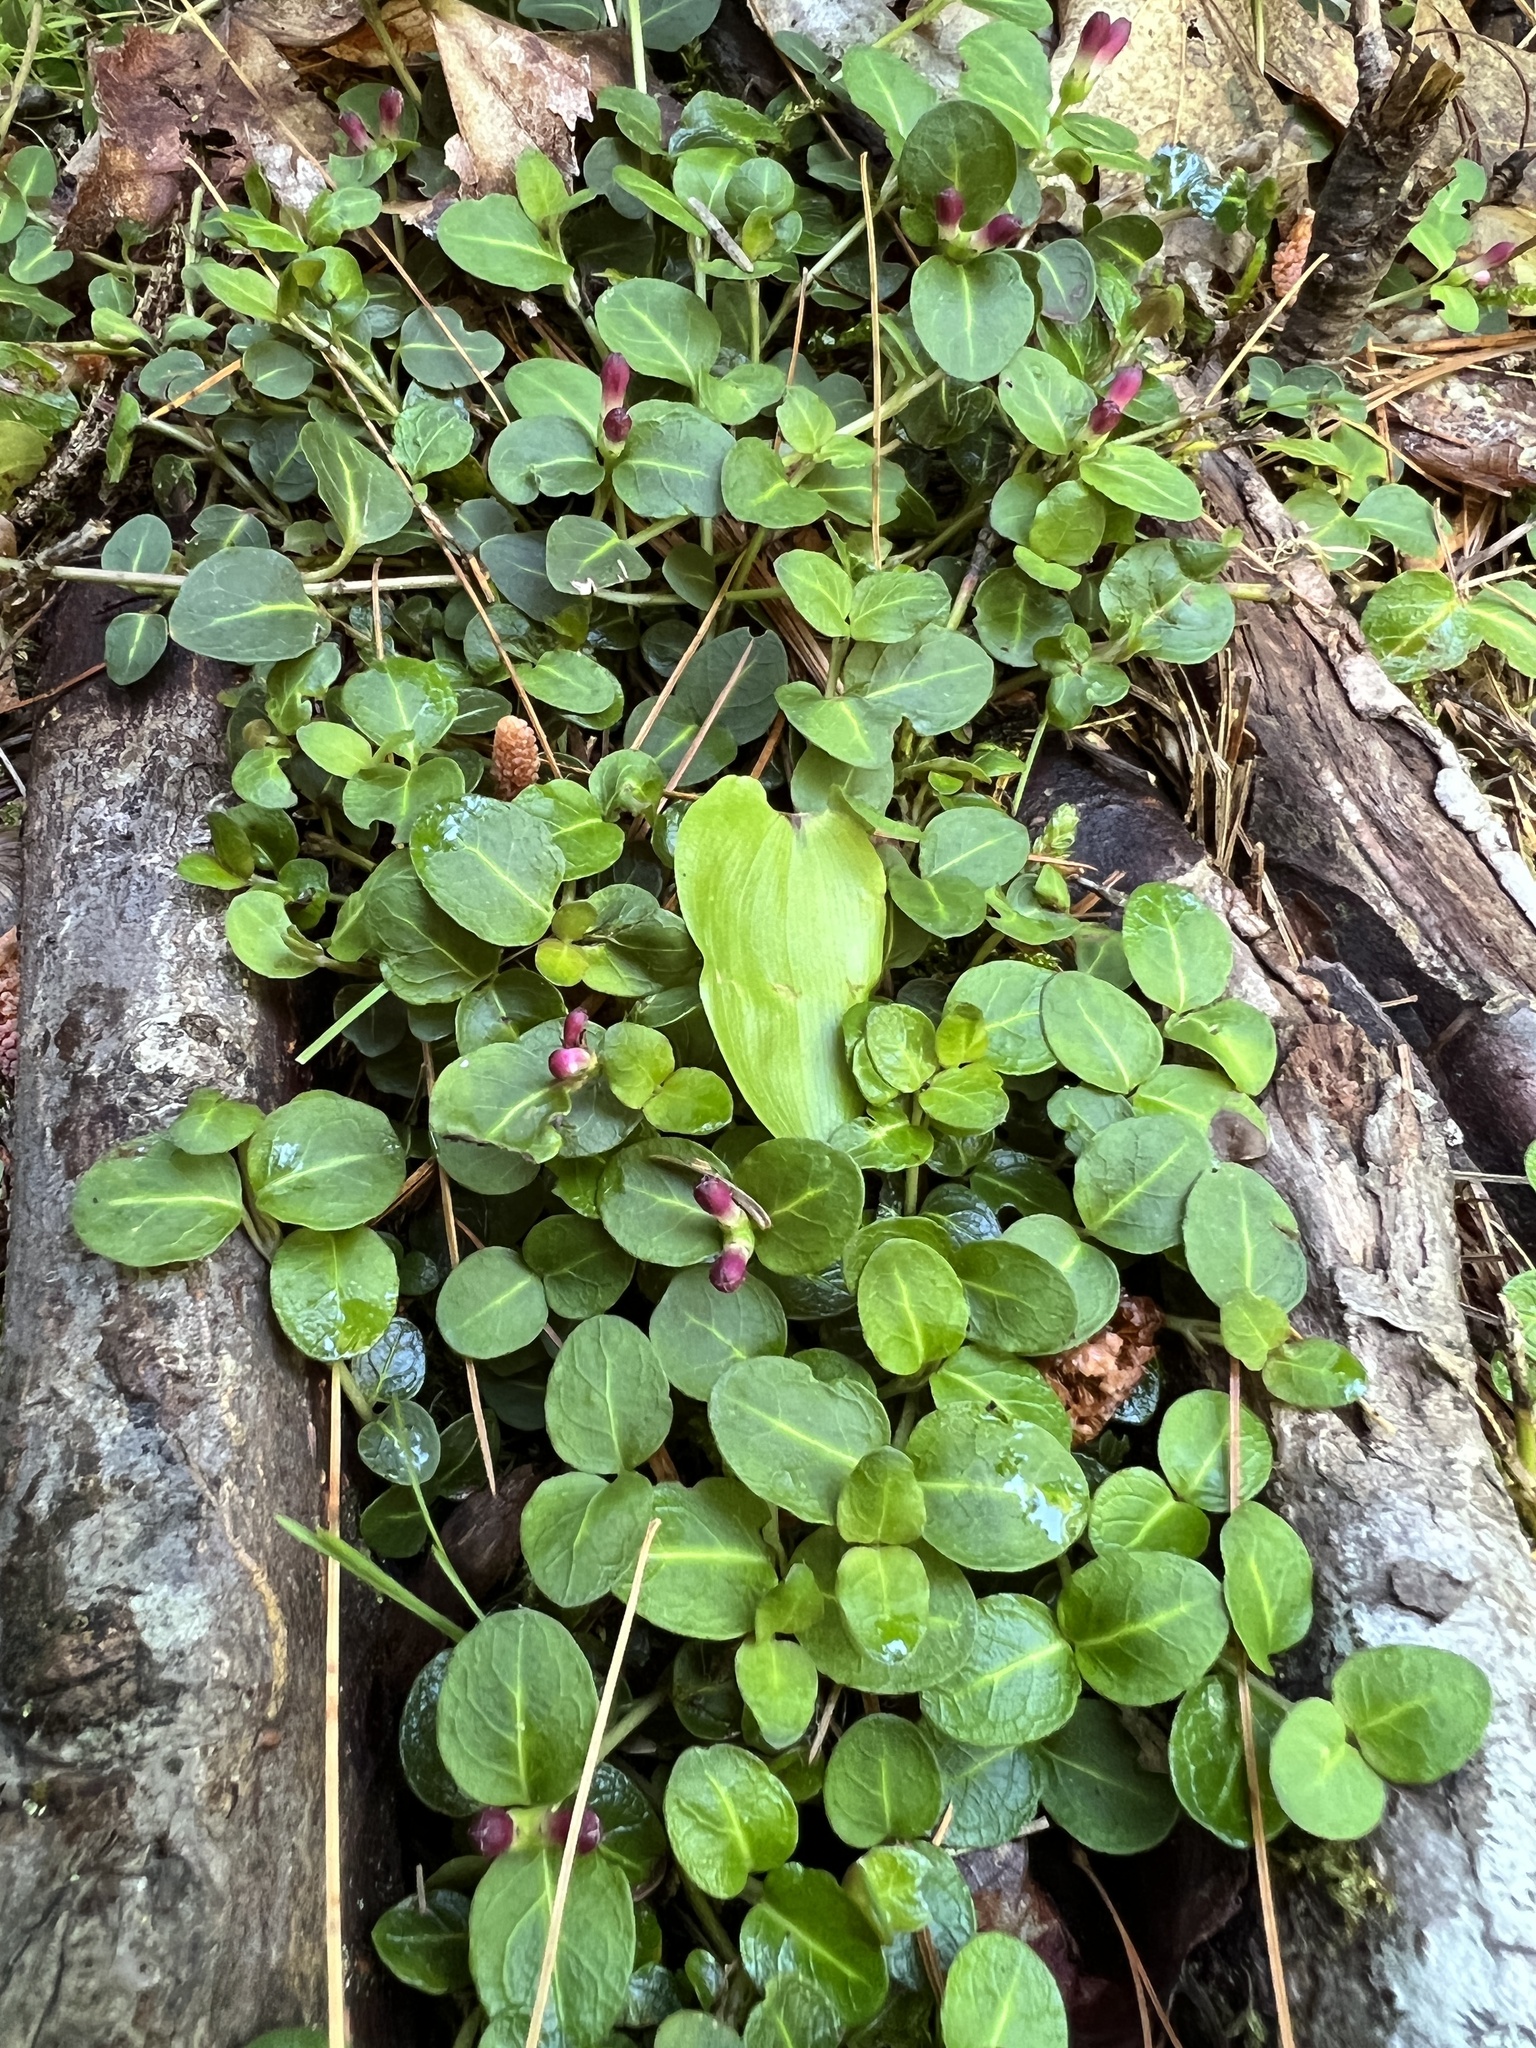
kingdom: Plantae
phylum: Tracheophyta
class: Magnoliopsida
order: Gentianales
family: Rubiaceae
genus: Mitchella
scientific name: Mitchella repens
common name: Partridge-berry
